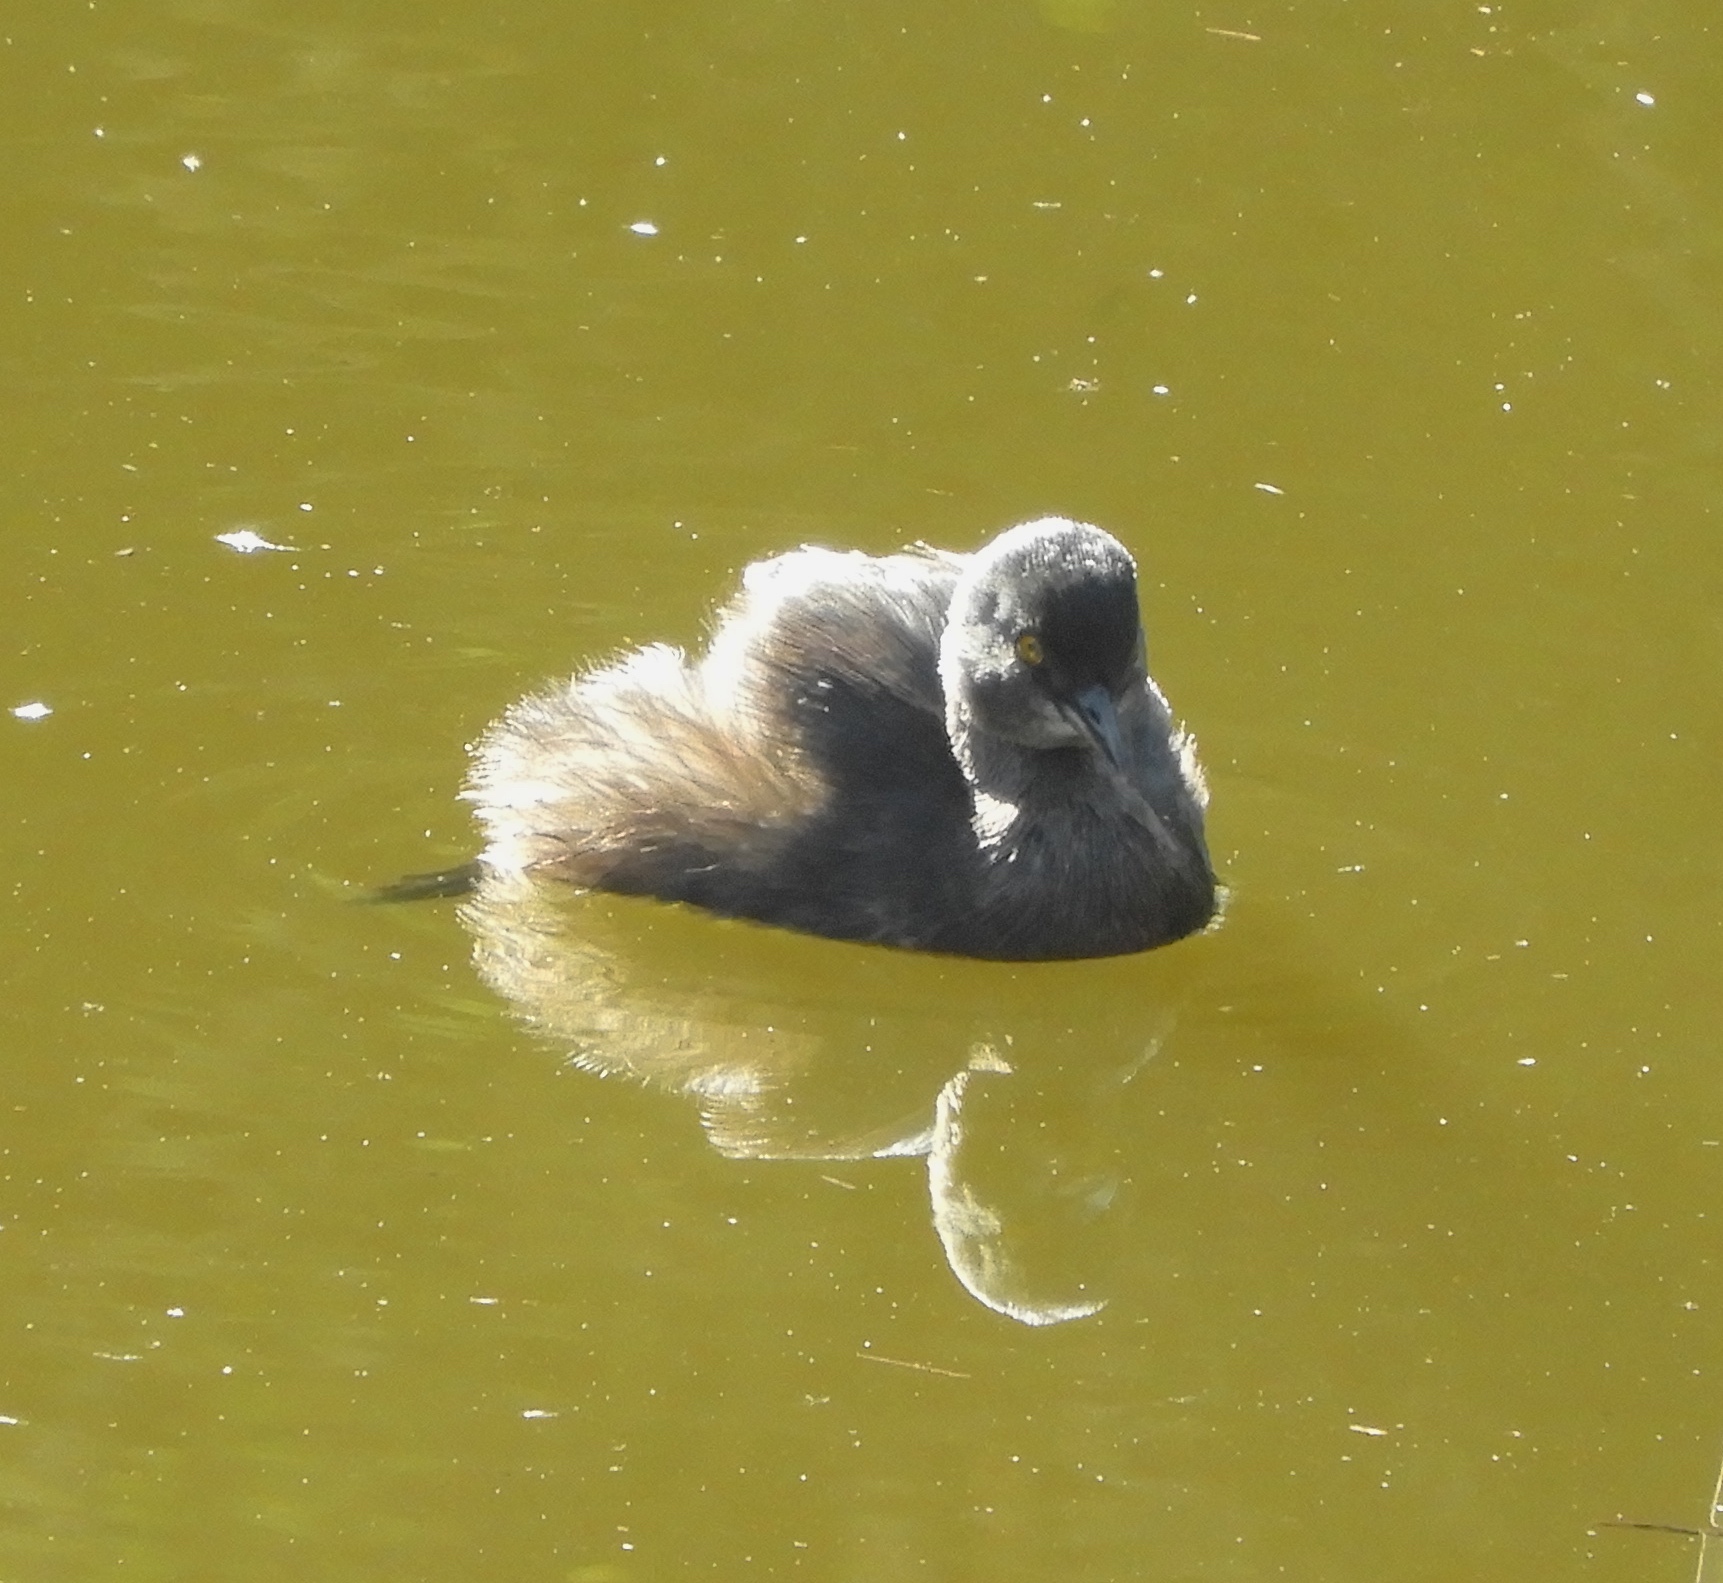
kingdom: Animalia
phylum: Chordata
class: Aves
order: Podicipediformes
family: Podicipedidae
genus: Tachybaptus
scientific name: Tachybaptus dominicus
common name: Least grebe
